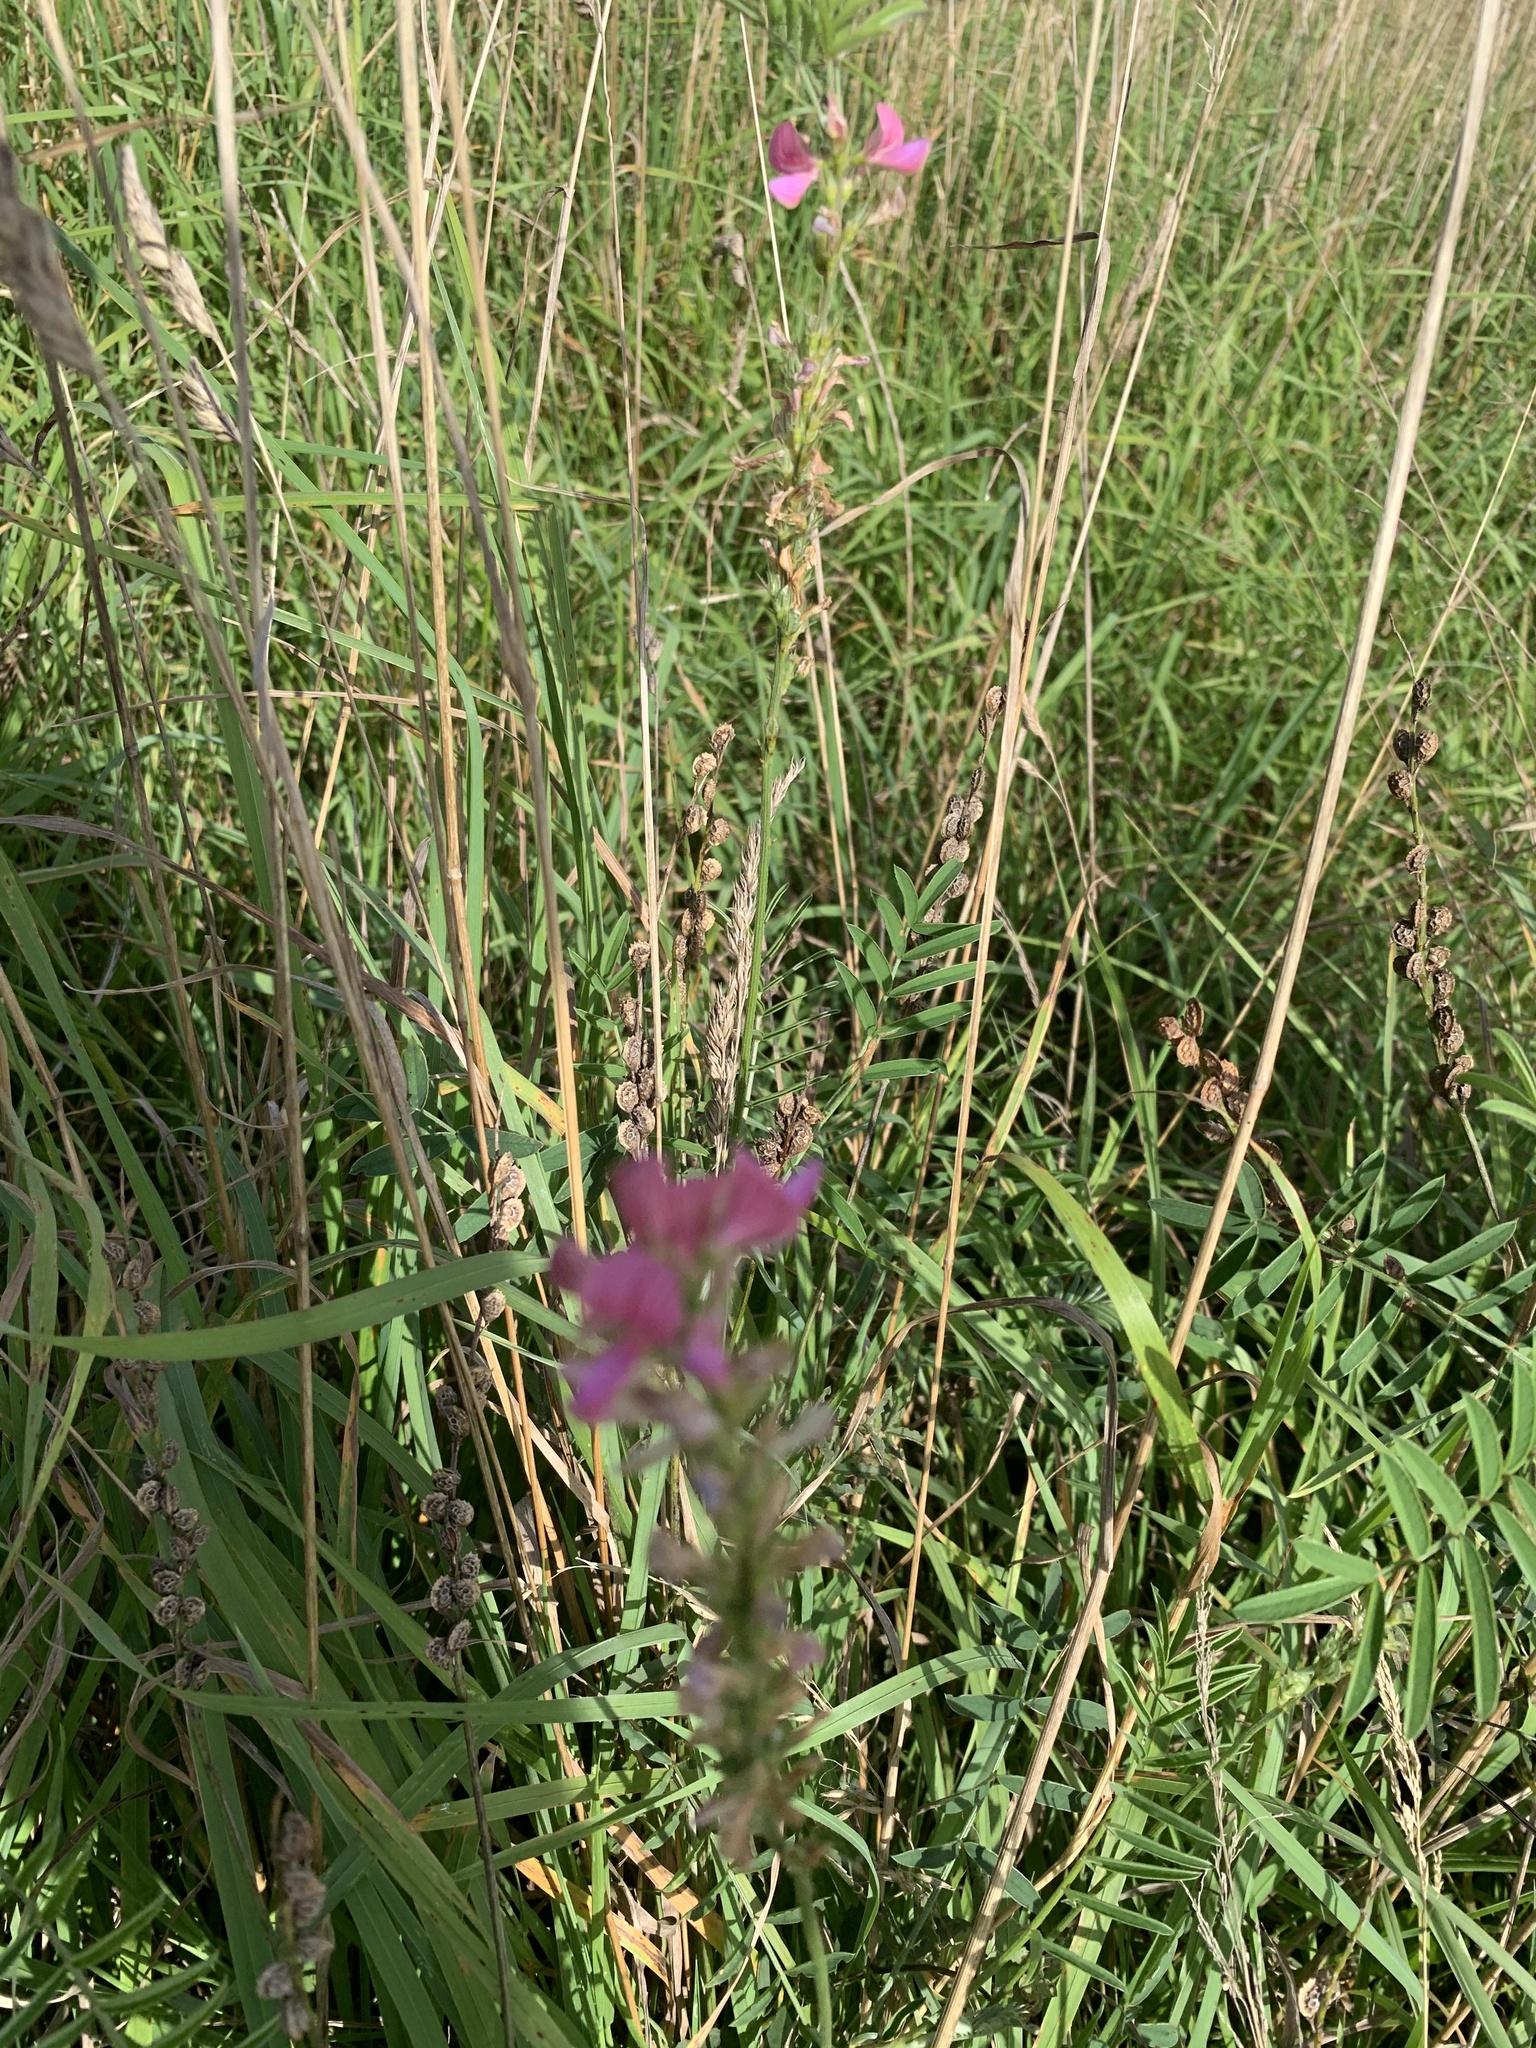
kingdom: Plantae
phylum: Tracheophyta
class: Magnoliopsida
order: Fabales
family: Fabaceae
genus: Onobrychis
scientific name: Onobrychis viciifolia
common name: Sainfoin
